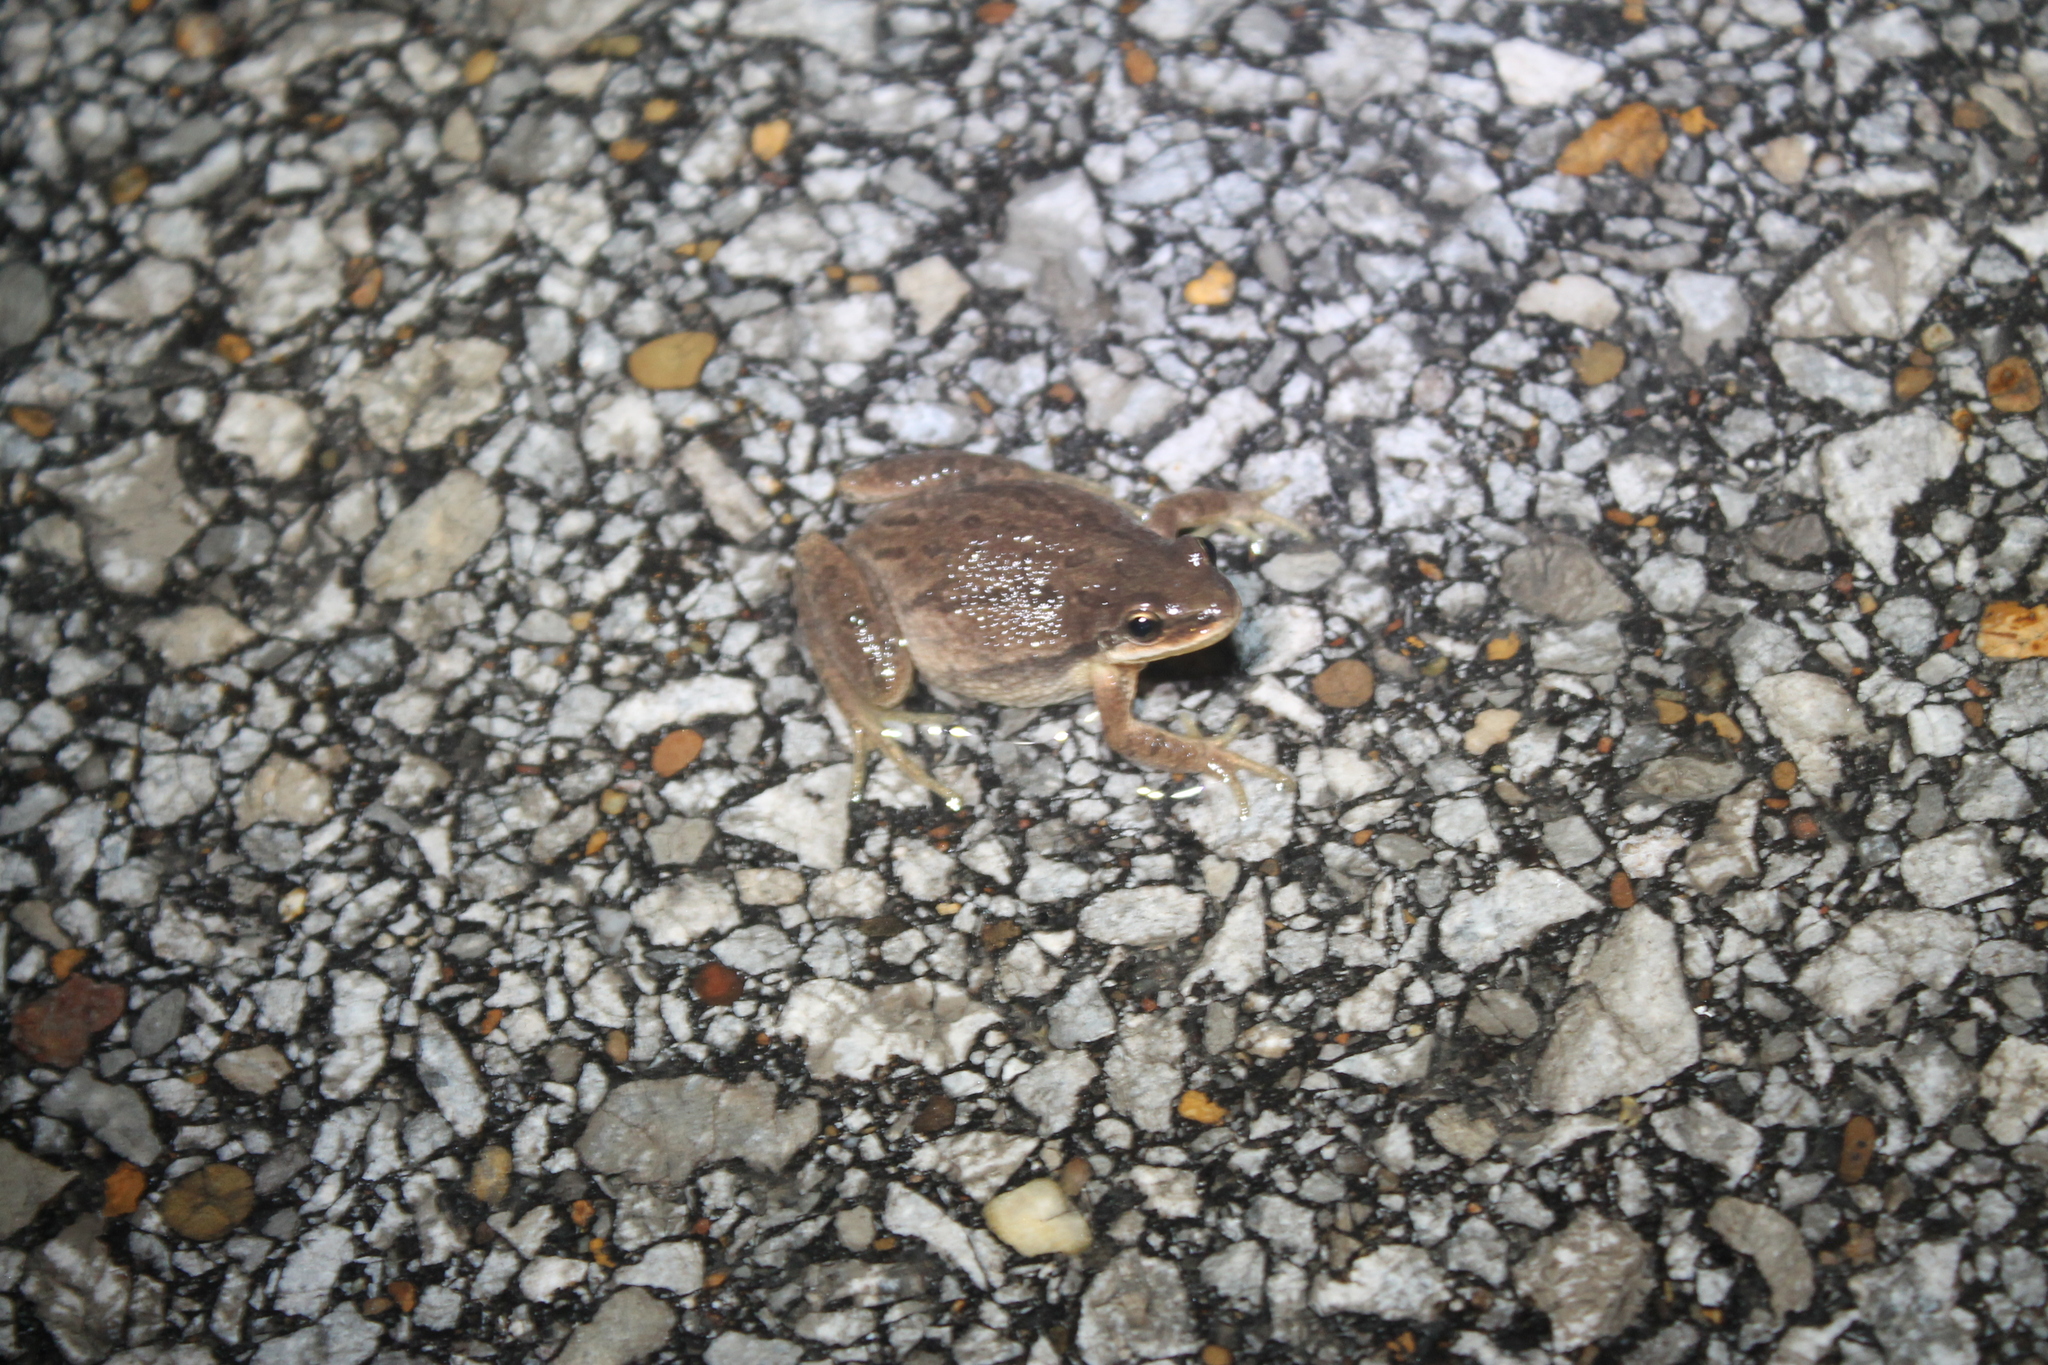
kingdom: Animalia
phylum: Chordata
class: Amphibia
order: Anura
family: Hylidae
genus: Pseudacris
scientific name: Pseudacris feriarum
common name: Upland chorus frog
